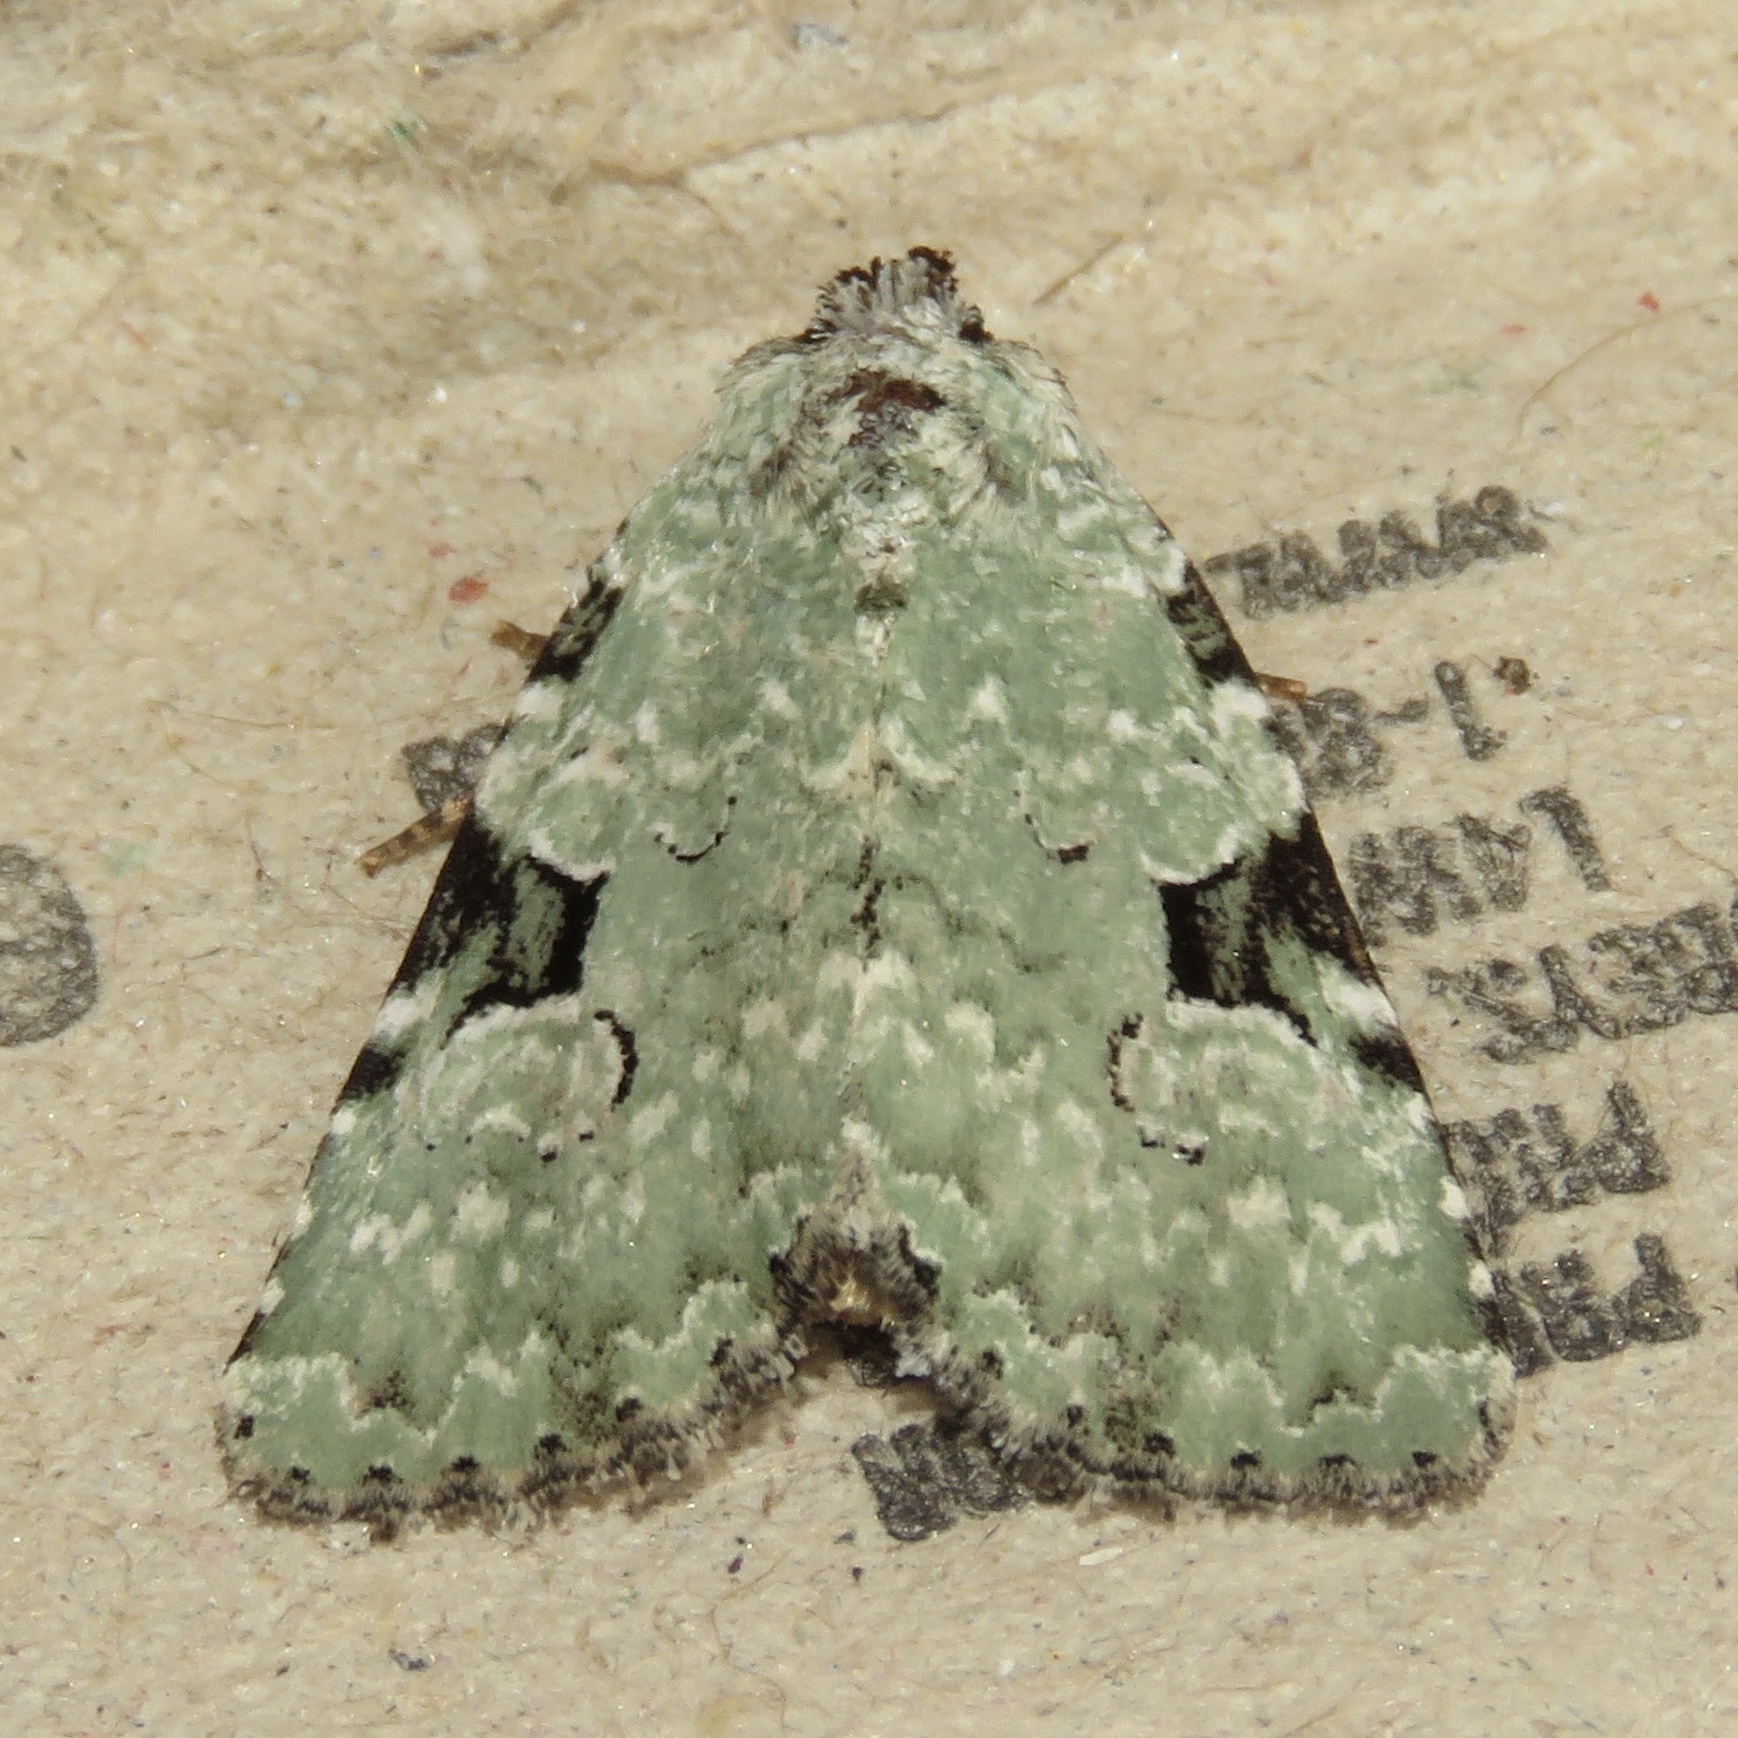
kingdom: Animalia
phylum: Arthropoda
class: Insecta
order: Lepidoptera
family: Noctuidae
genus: Leuconycta
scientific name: Leuconycta diphteroides
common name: Green leuconycta moth
